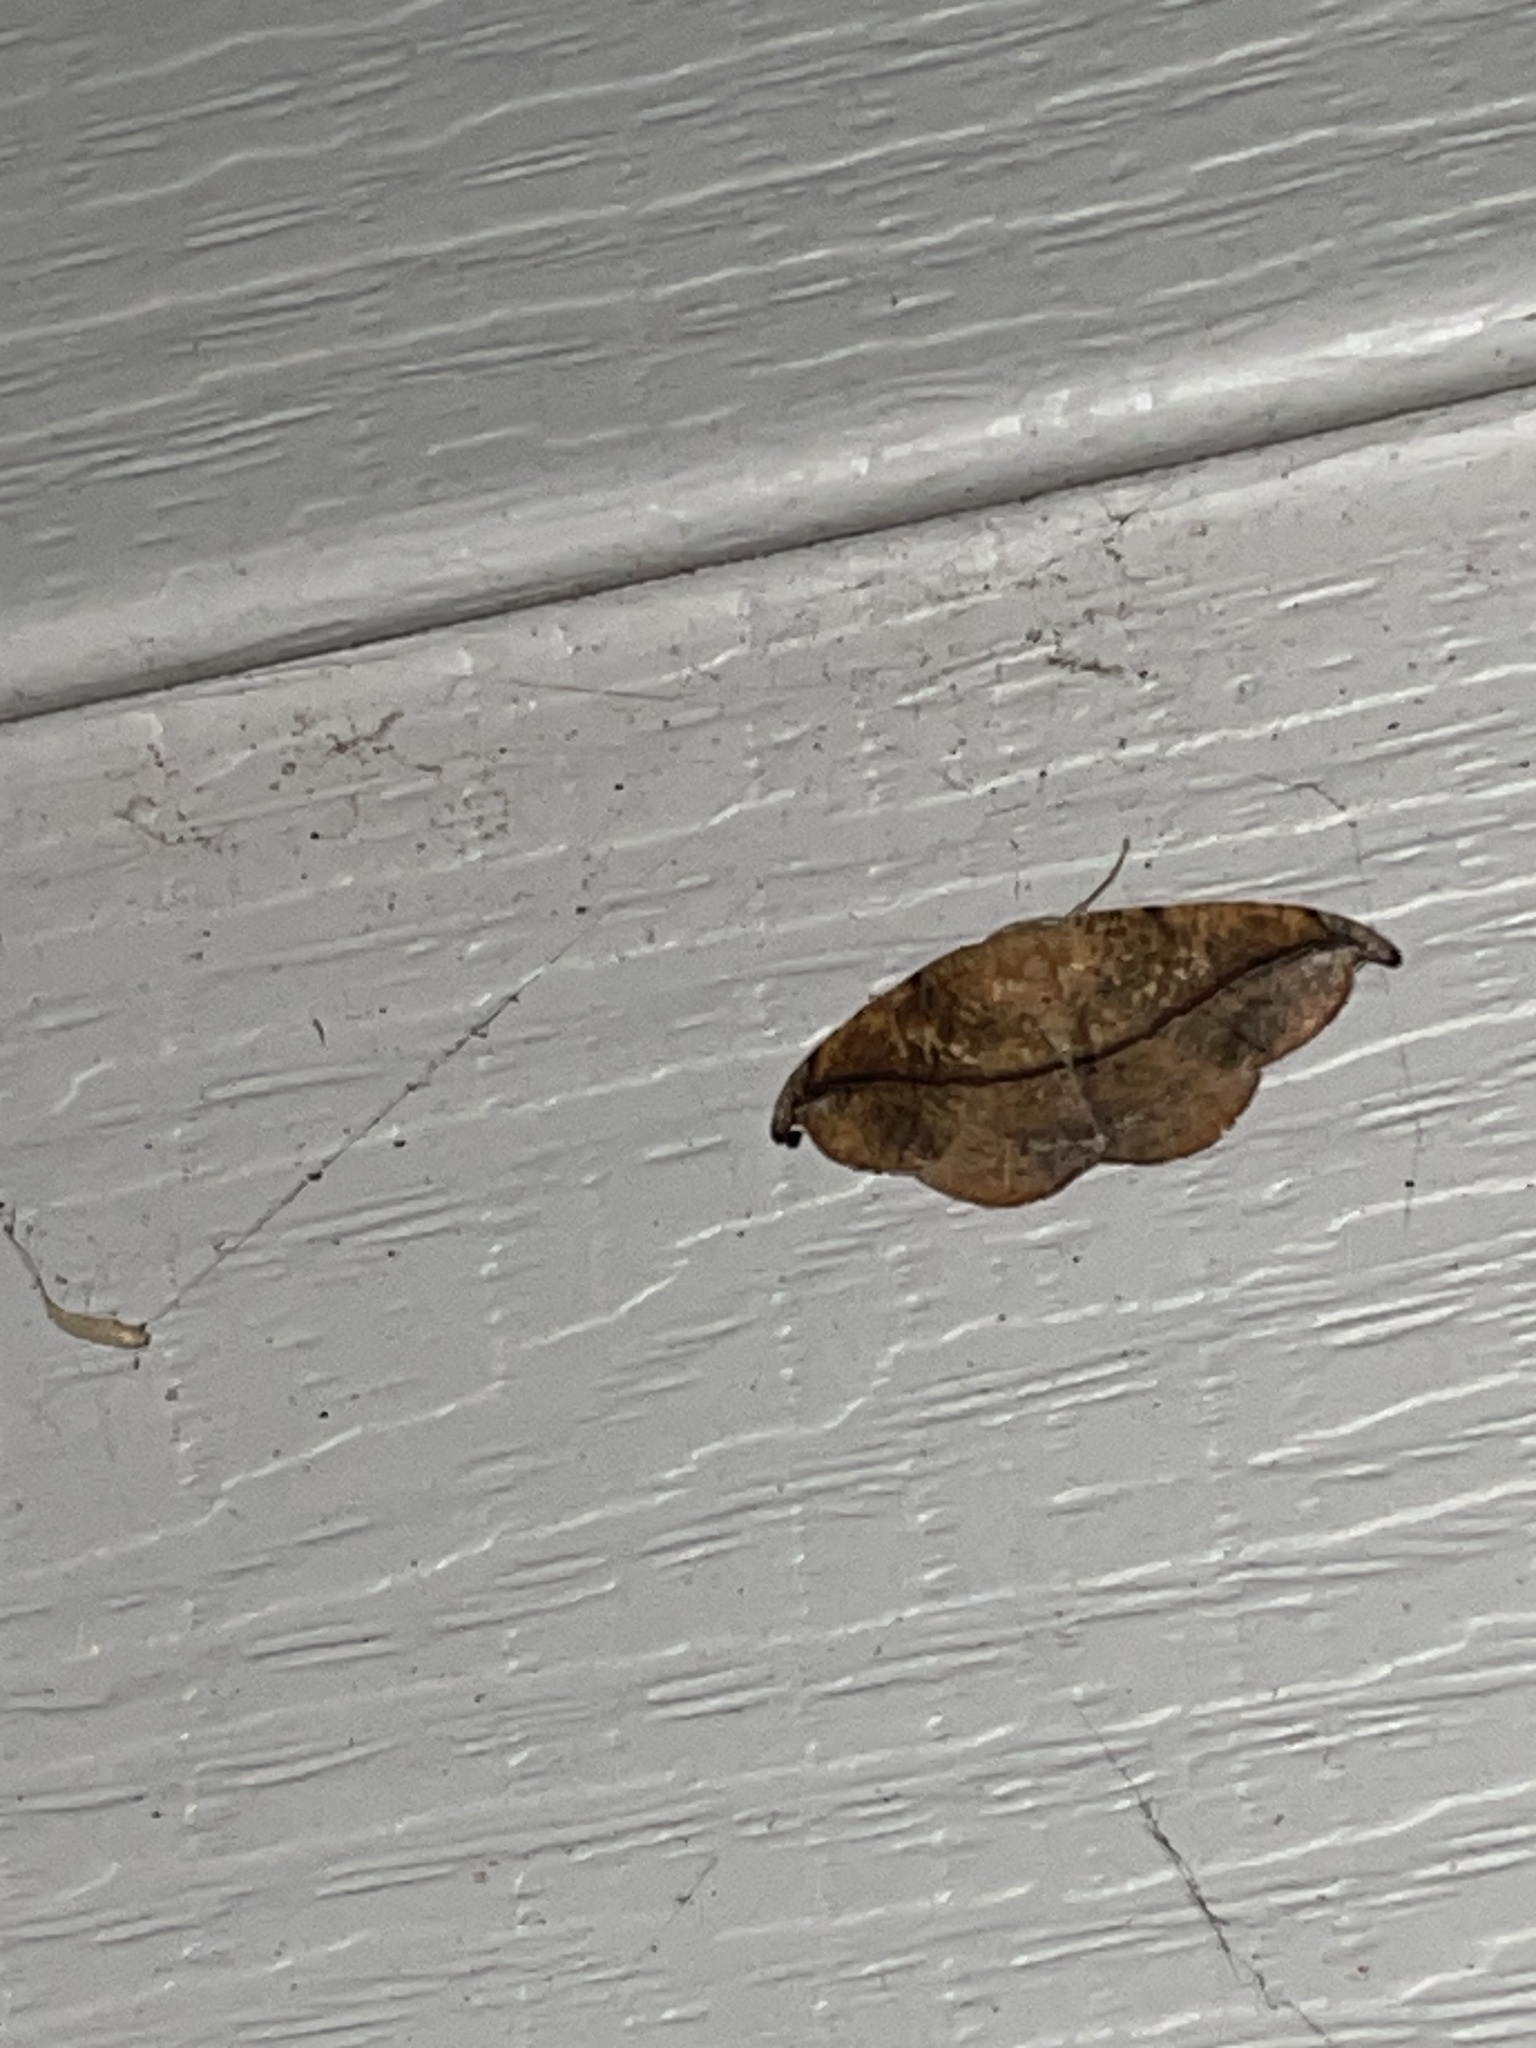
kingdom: Animalia
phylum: Arthropoda
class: Insecta
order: Lepidoptera
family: Geometridae
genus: Patalene
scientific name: Patalene olyzonaria
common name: Juniper geometer moth
